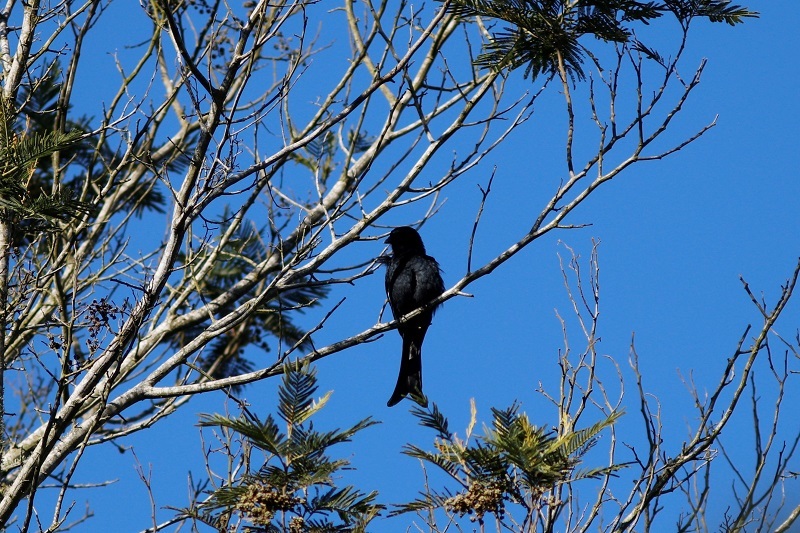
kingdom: Animalia
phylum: Chordata
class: Aves
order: Passeriformes
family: Dicruridae
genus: Dicrurus
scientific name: Dicrurus adsimilis
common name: Fork-tailed drongo
